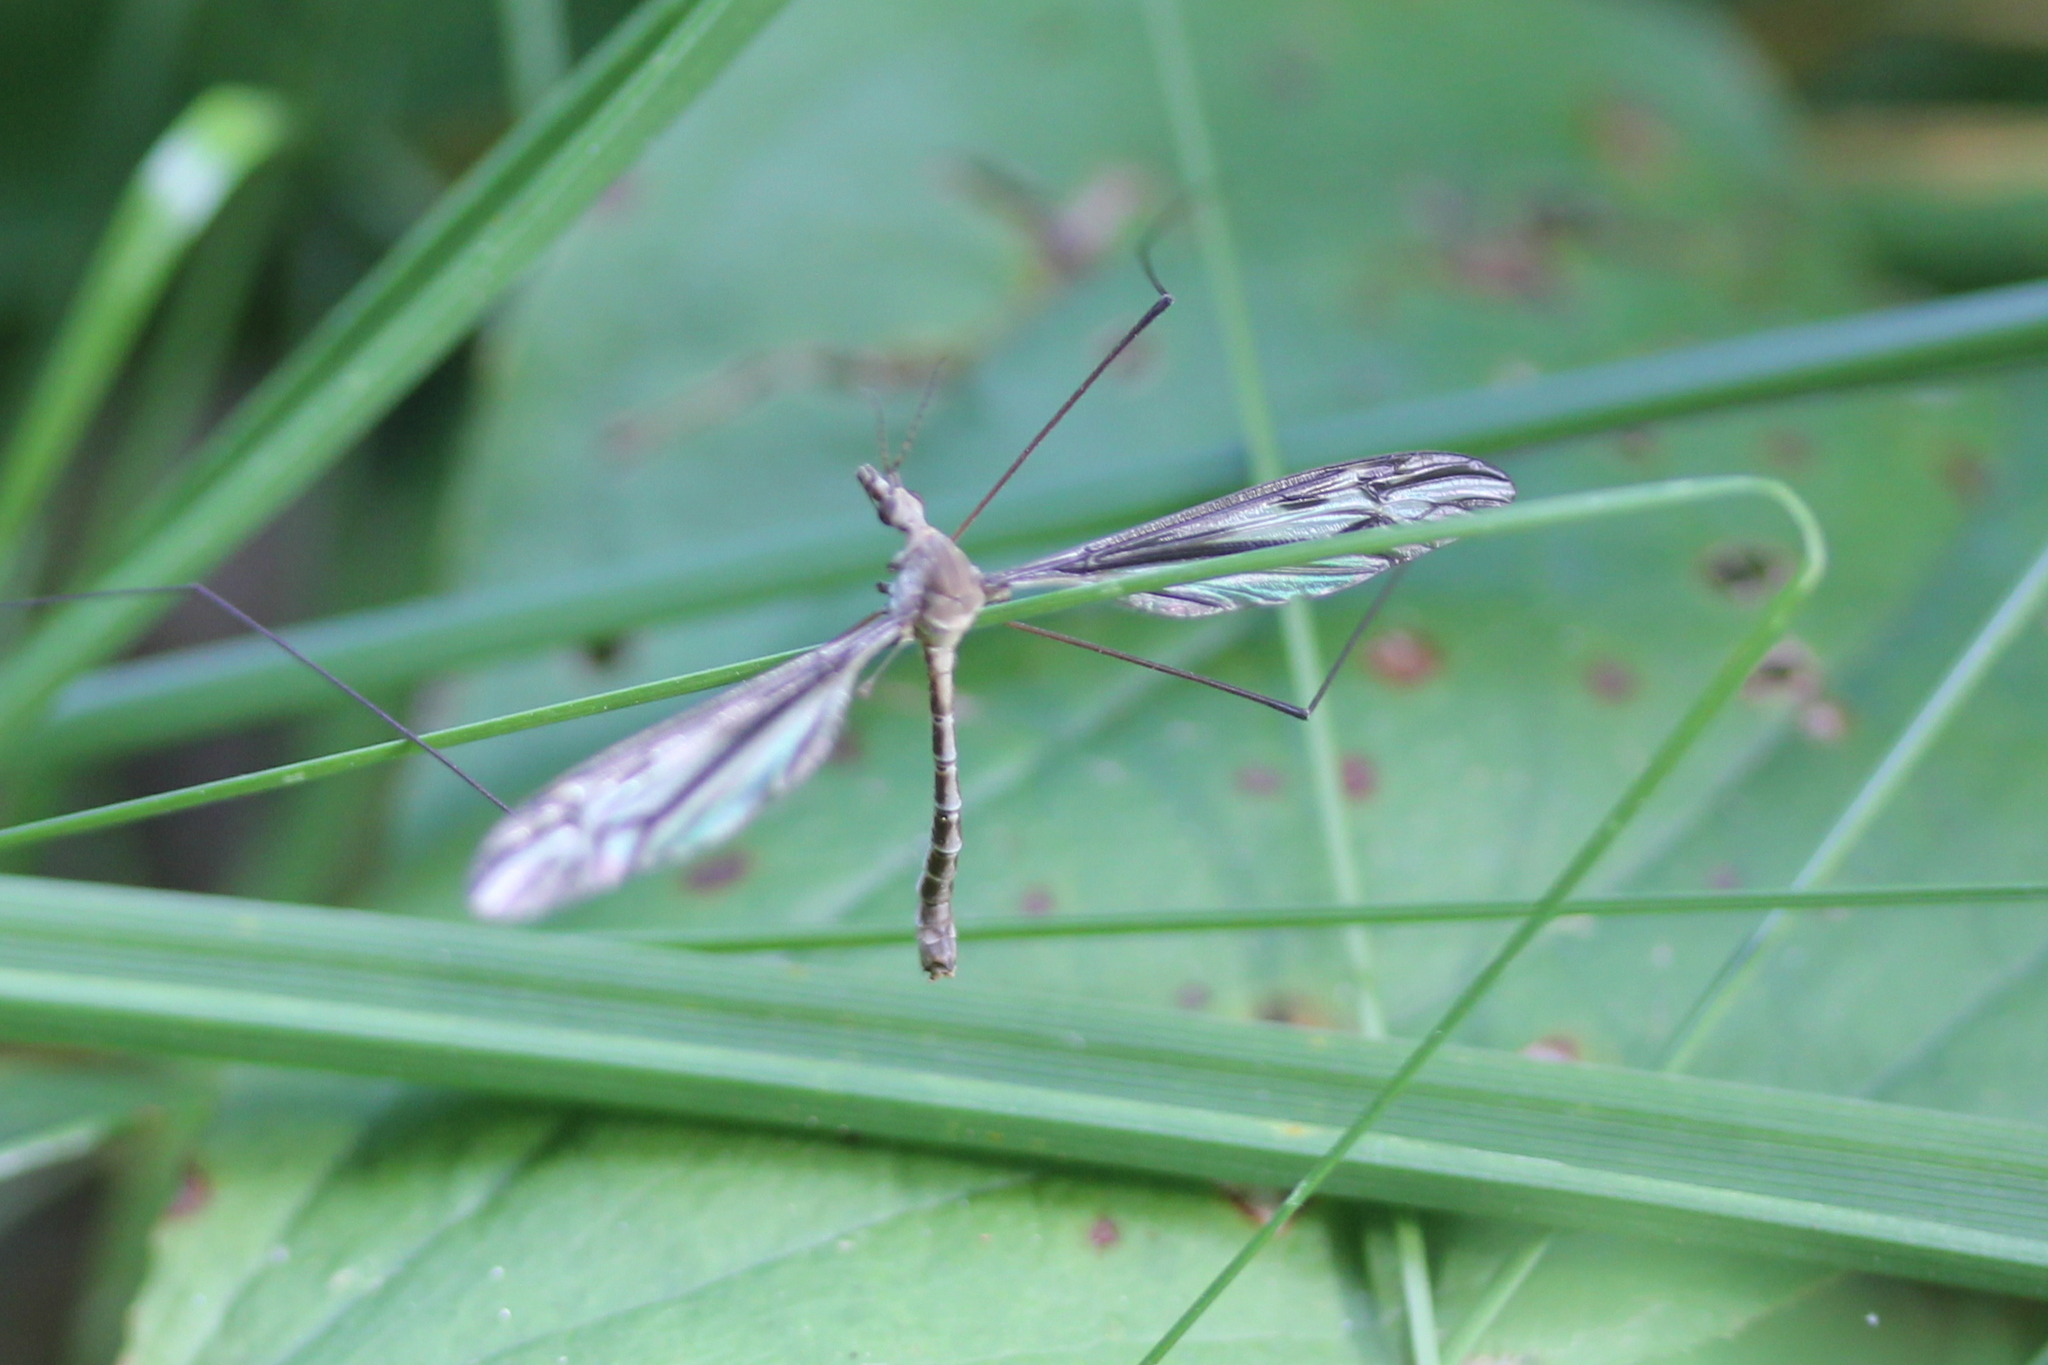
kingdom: Animalia
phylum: Arthropoda
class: Insecta
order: Diptera
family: Tipulidae
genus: Tipula
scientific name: Tipula furca
